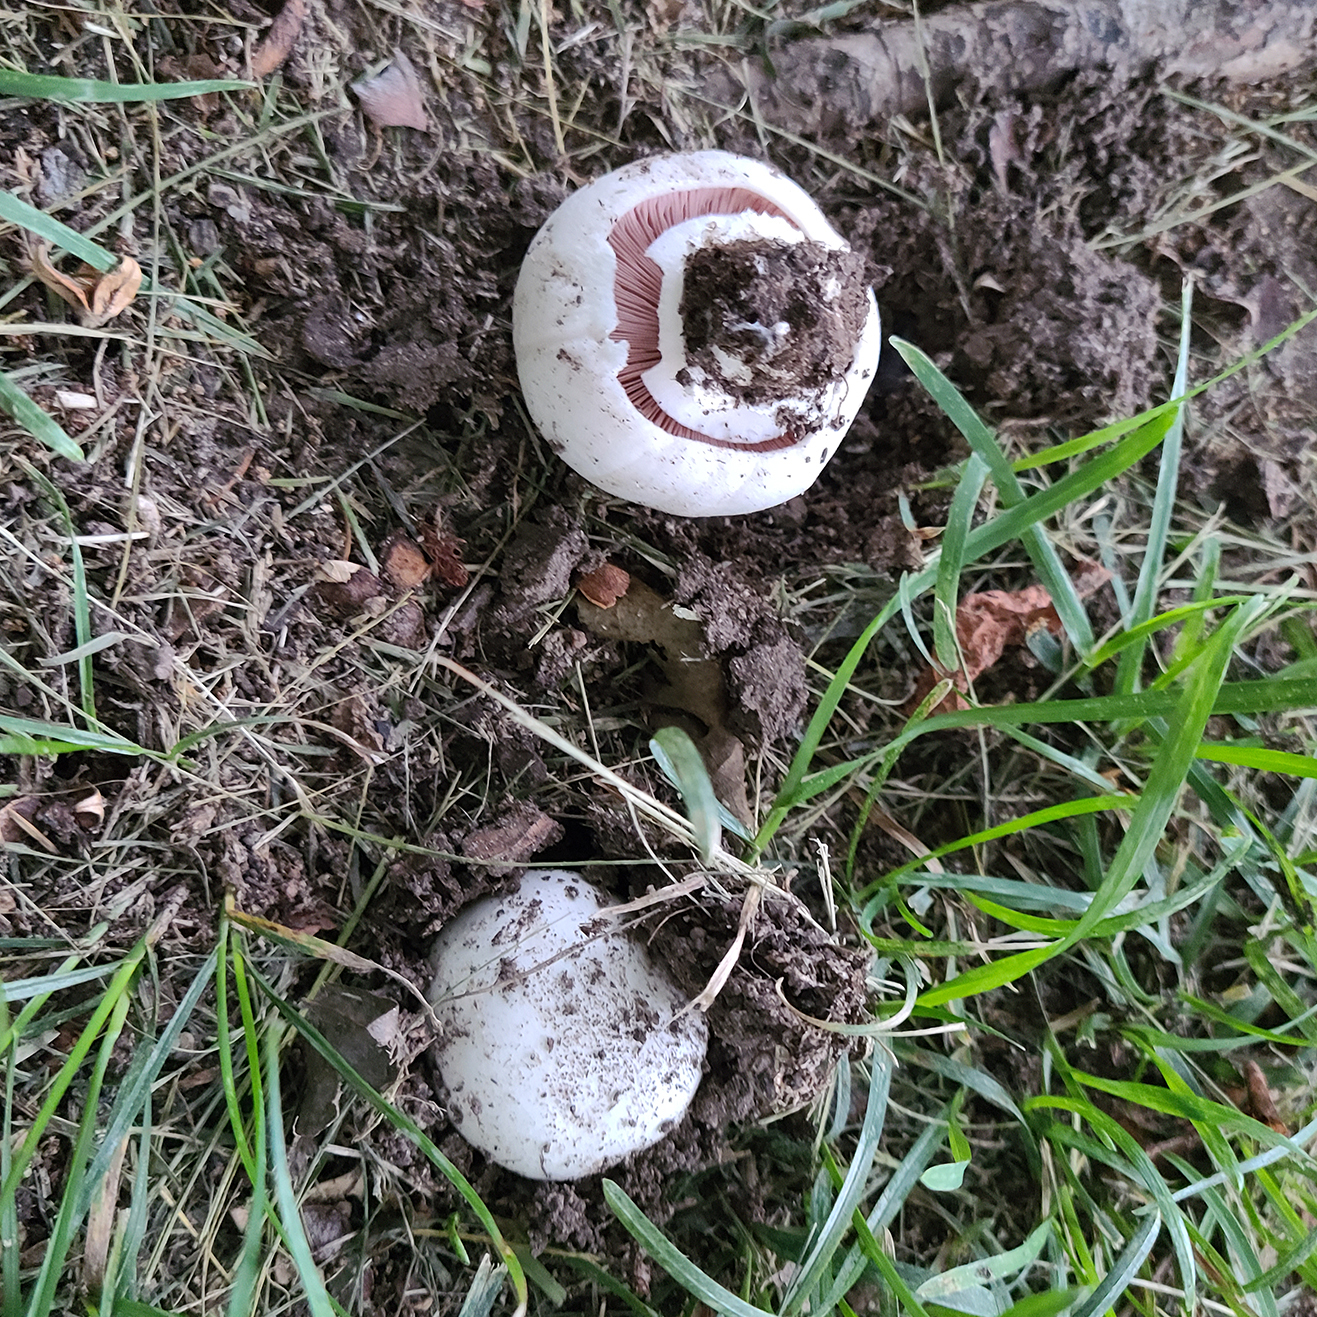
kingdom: Fungi
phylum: Basidiomycota
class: Agaricomycetes
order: Agaricales
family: Agaricaceae
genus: Agaricus
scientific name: Agaricus bitorquis
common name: Pavement mushroom
